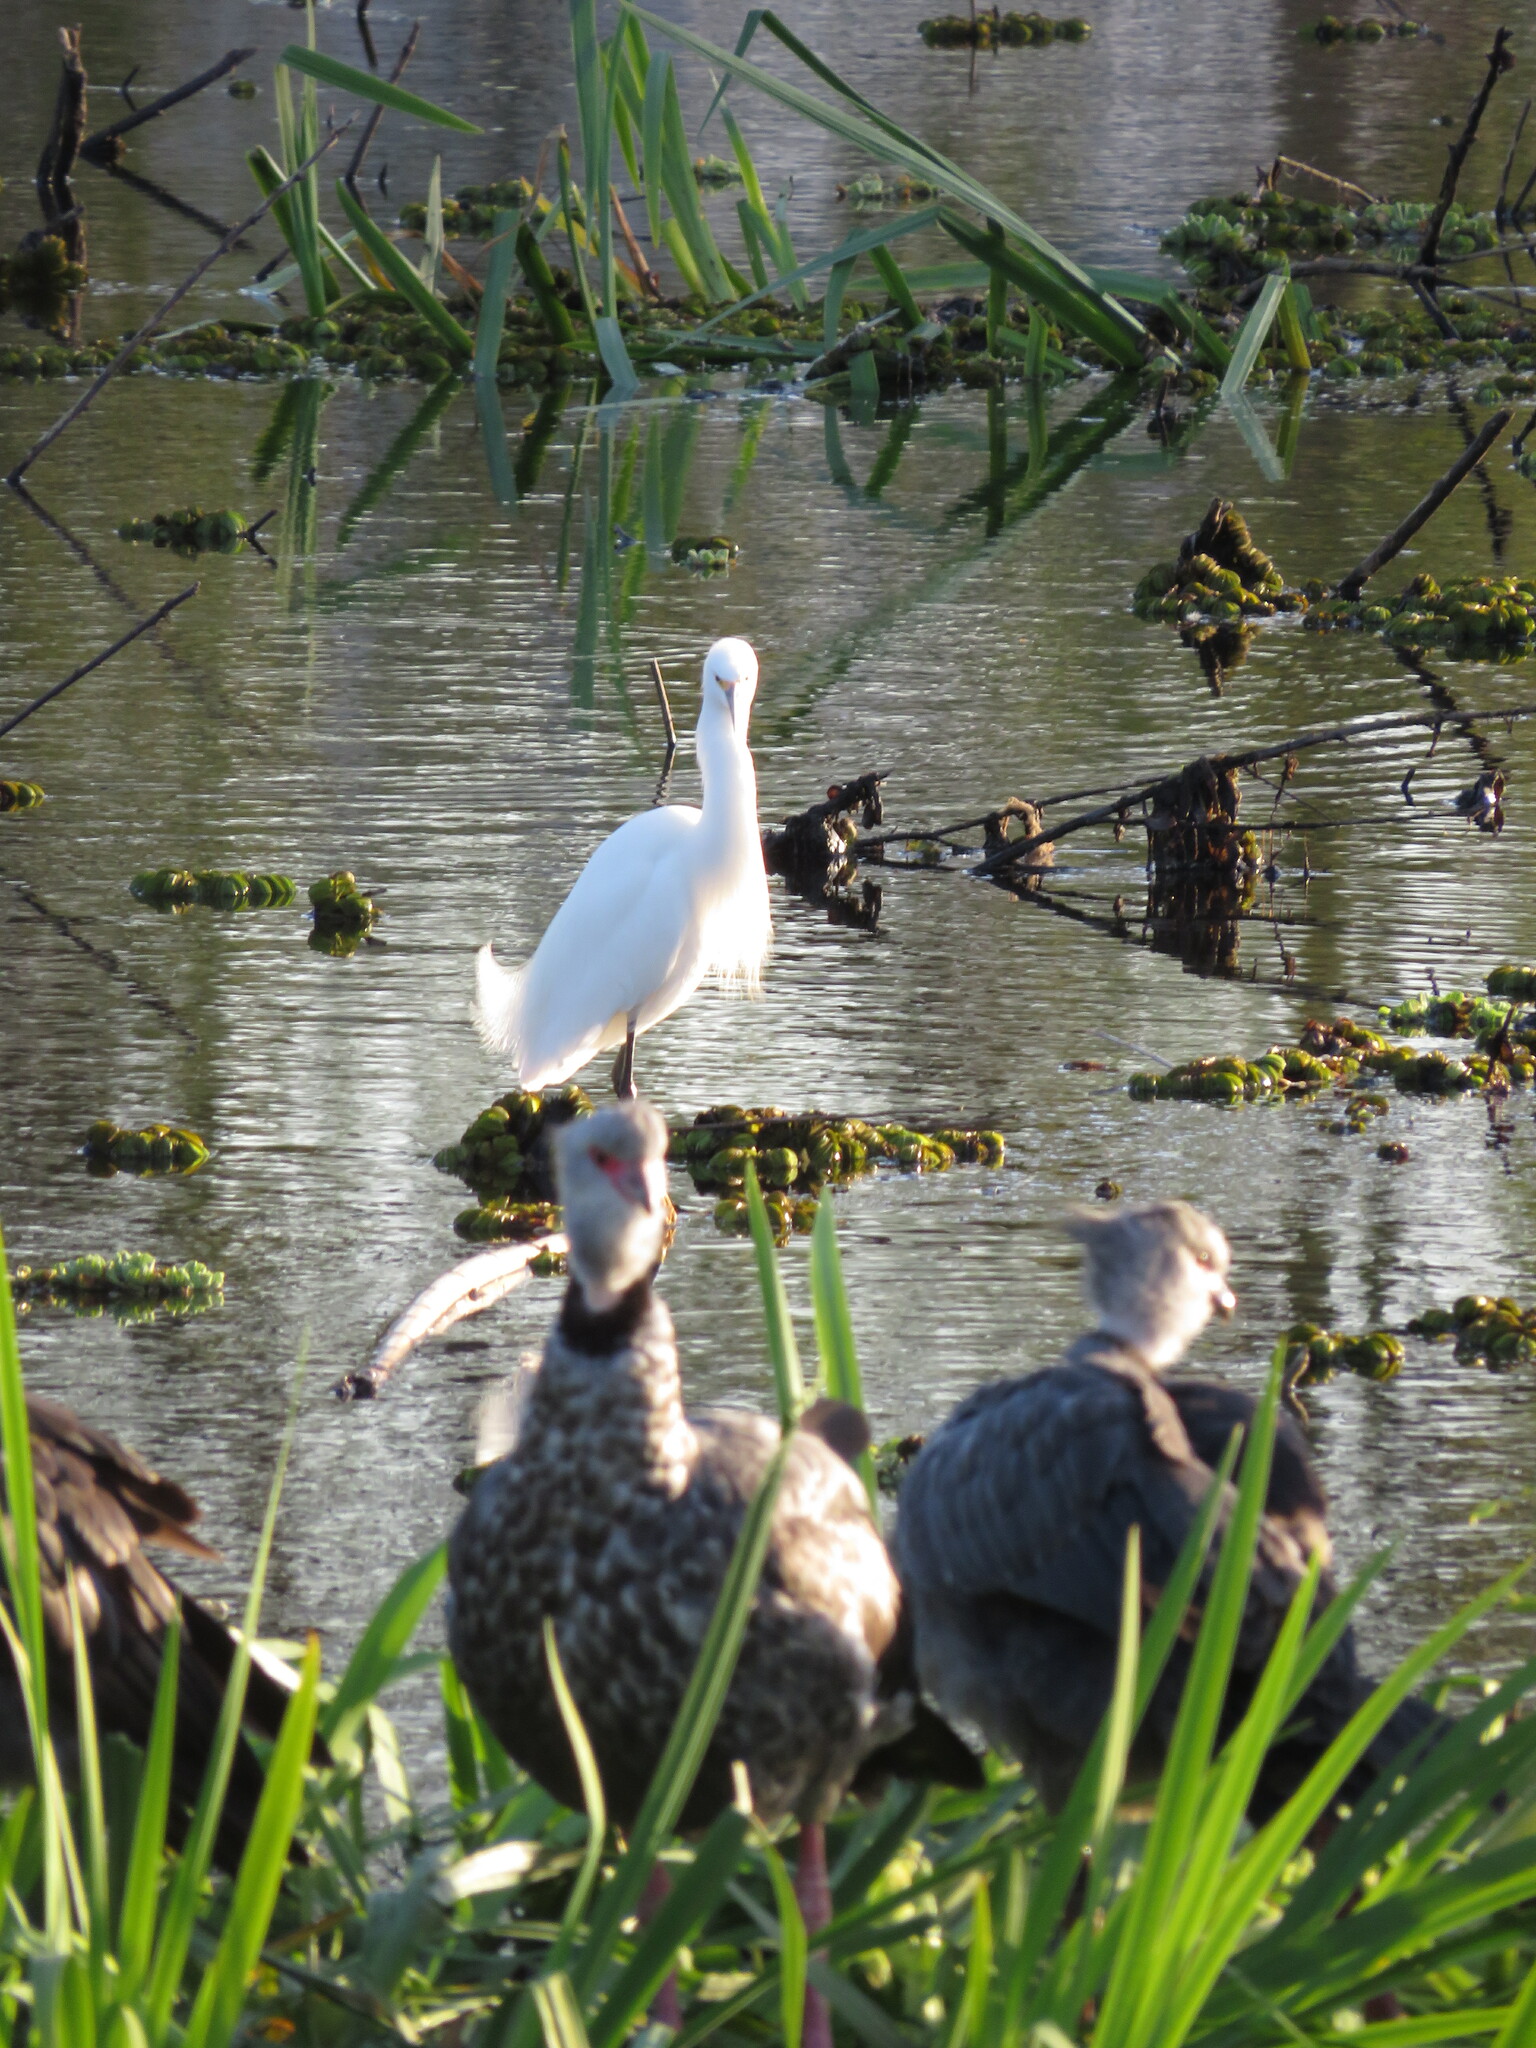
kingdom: Animalia
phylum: Chordata
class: Aves
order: Pelecaniformes
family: Ardeidae
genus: Egretta
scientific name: Egretta thula
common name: Snowy egret
